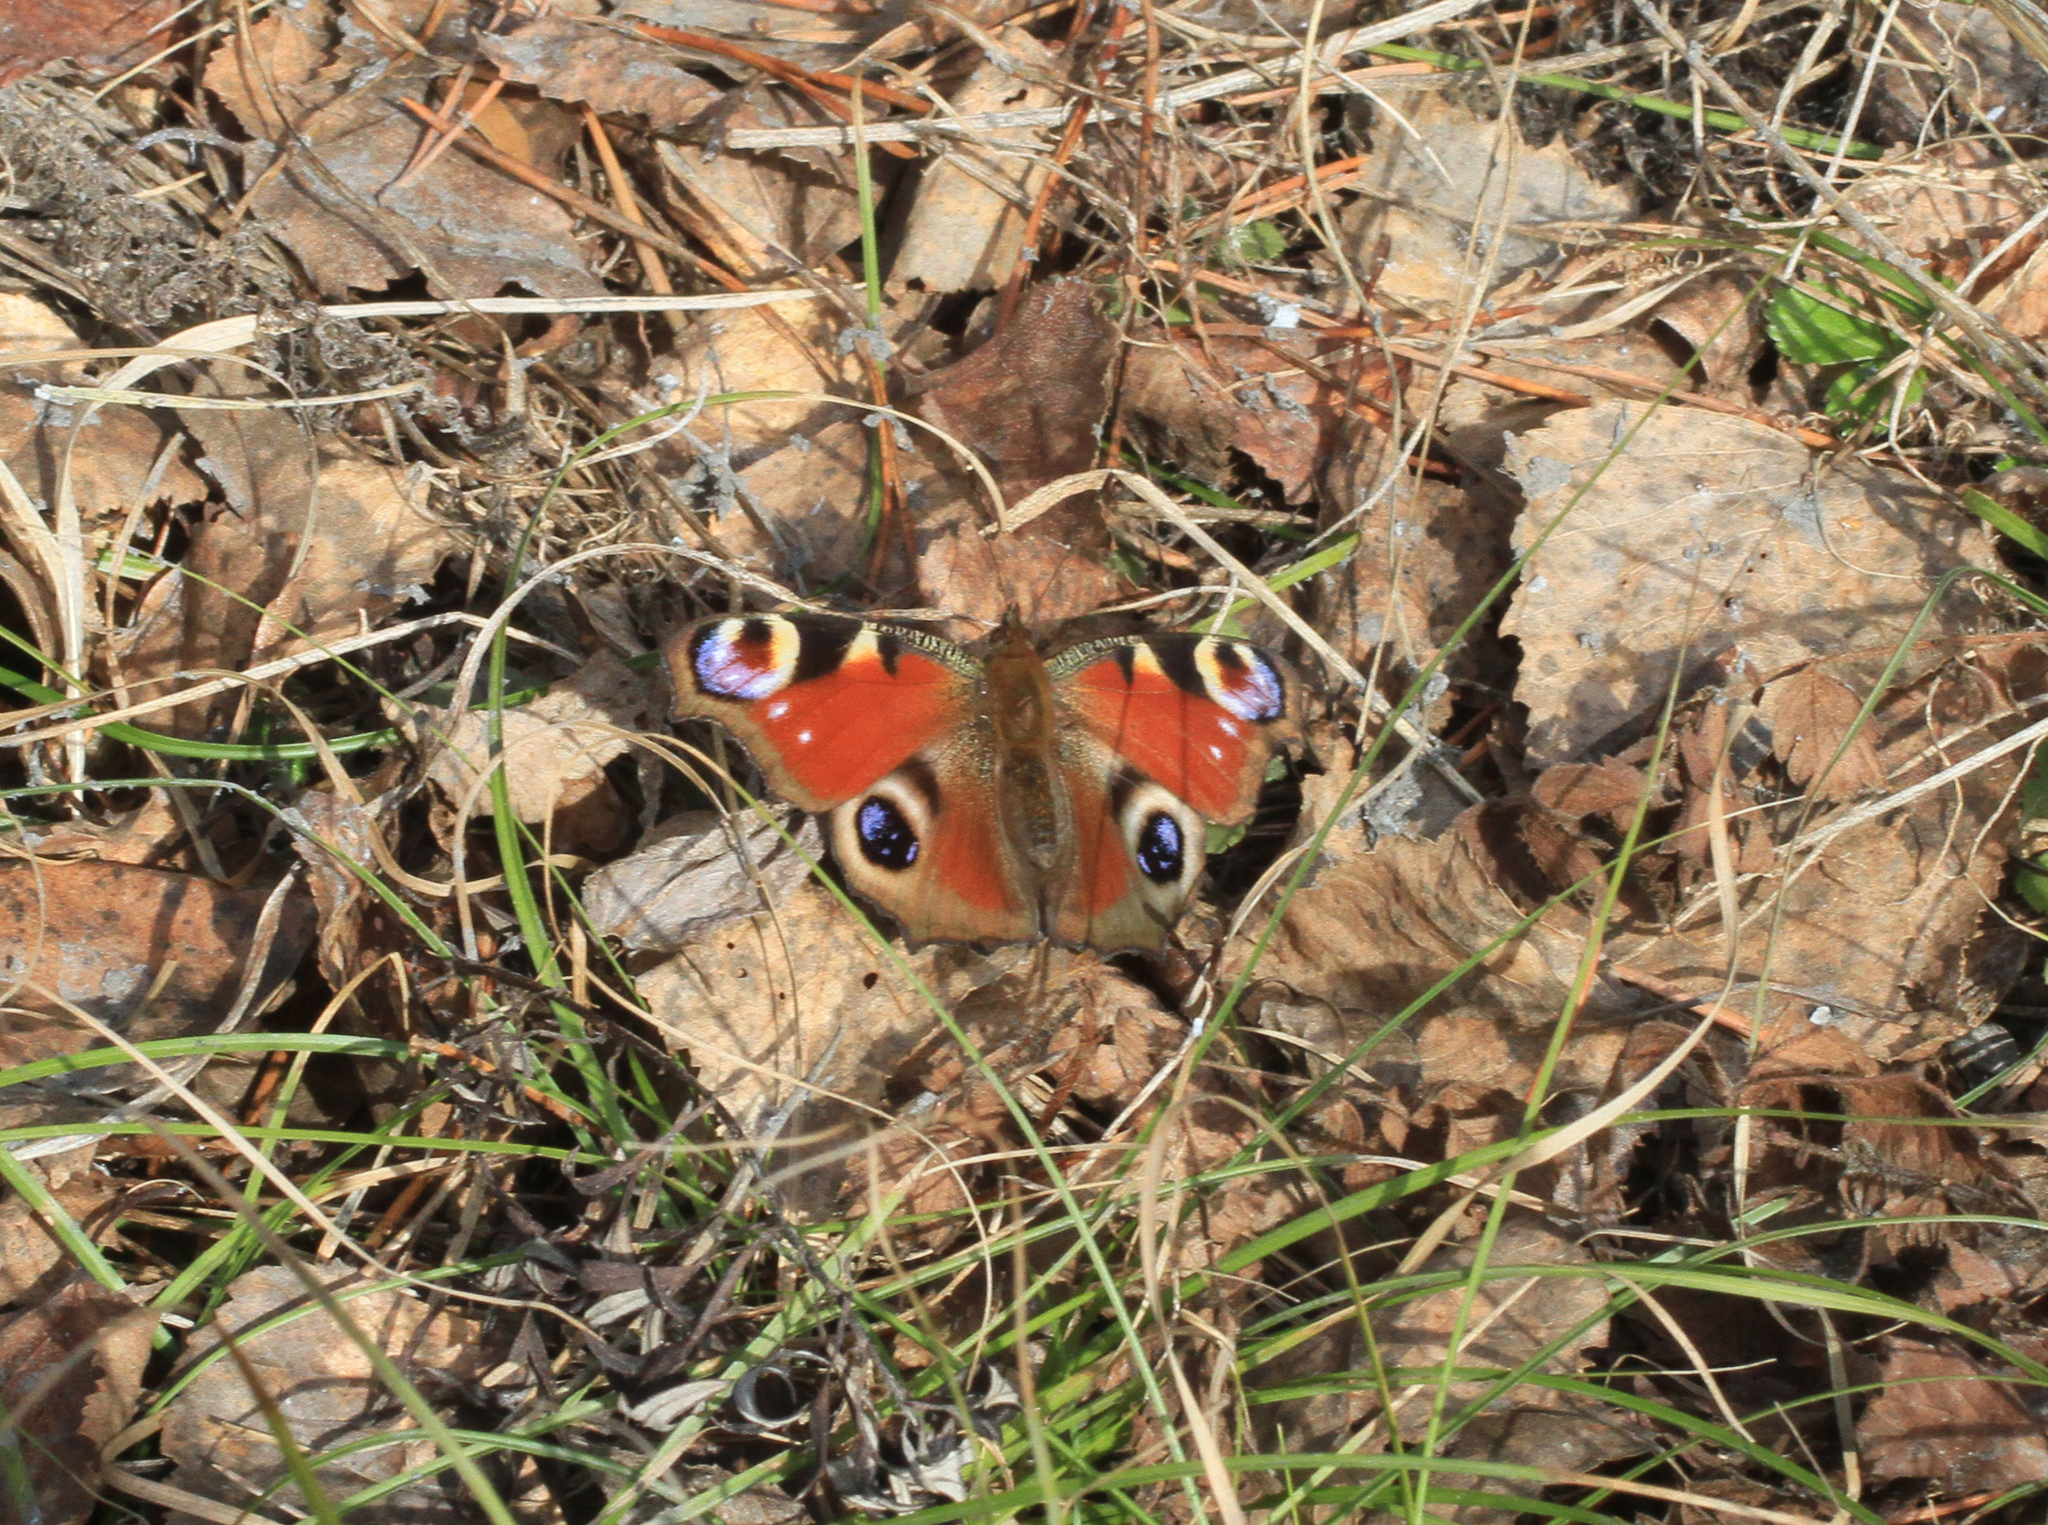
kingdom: Animalia
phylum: Arthropoda
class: Insecta
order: Lepidoptera
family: Nymphalidae
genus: Aglais
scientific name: Aglais io
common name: Peacock
